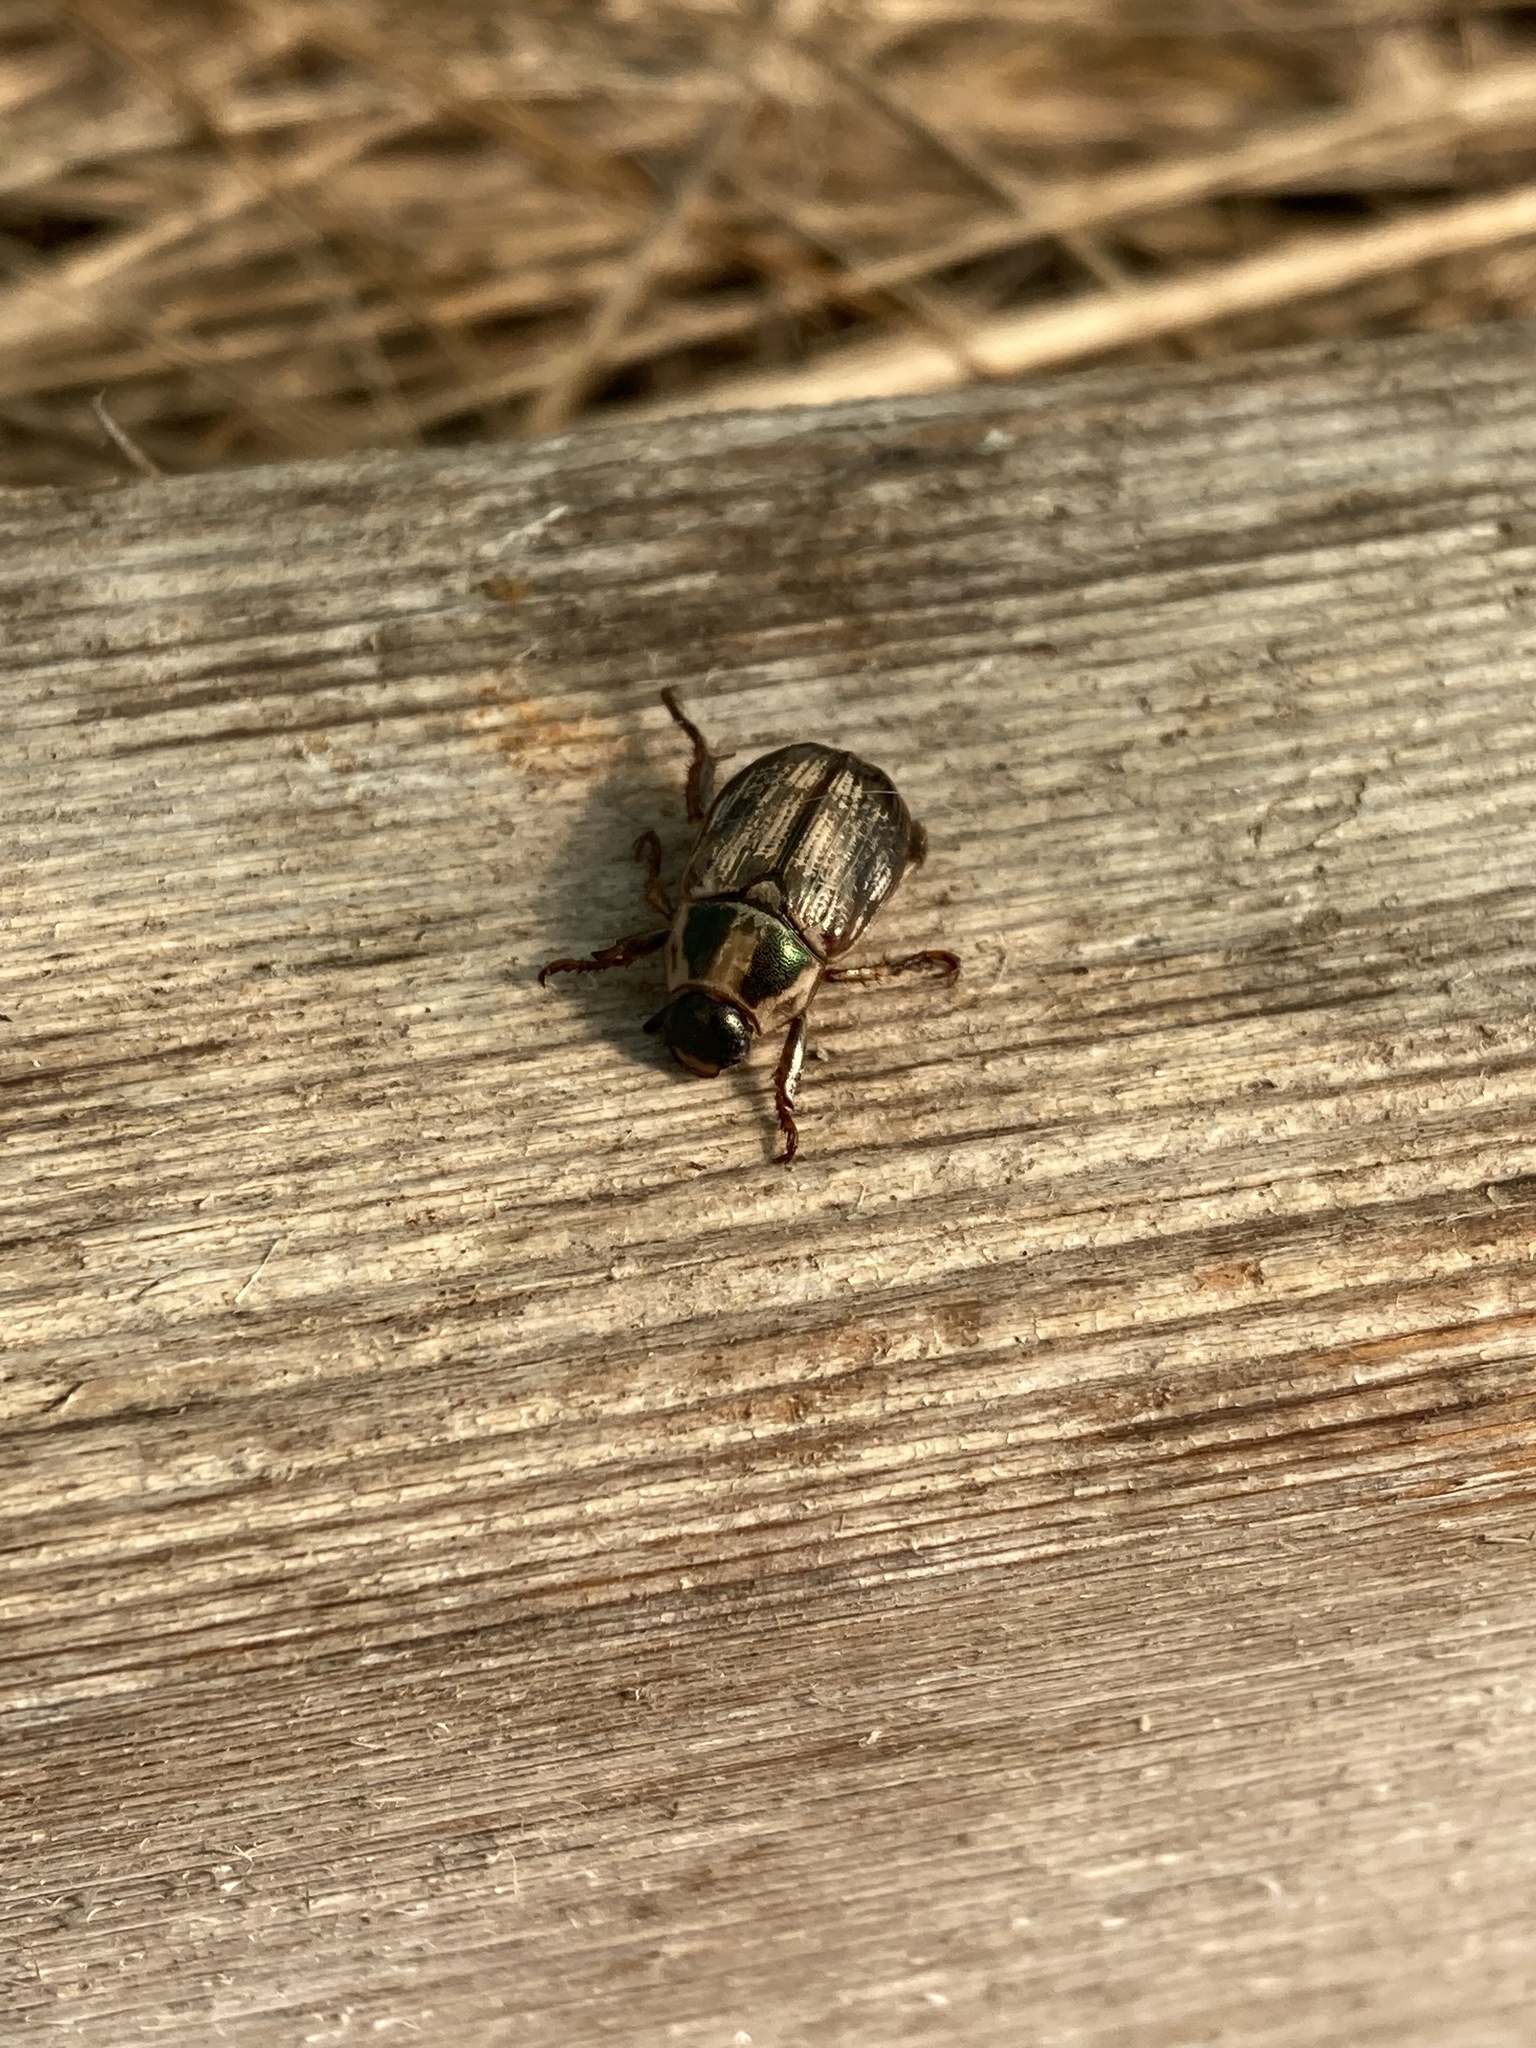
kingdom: Animalia
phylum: Arthropoda
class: Insecta
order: Coleoptera
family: Scarabaeidae
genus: Exomala
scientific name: Exomala orientalis
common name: Oriental beetle
